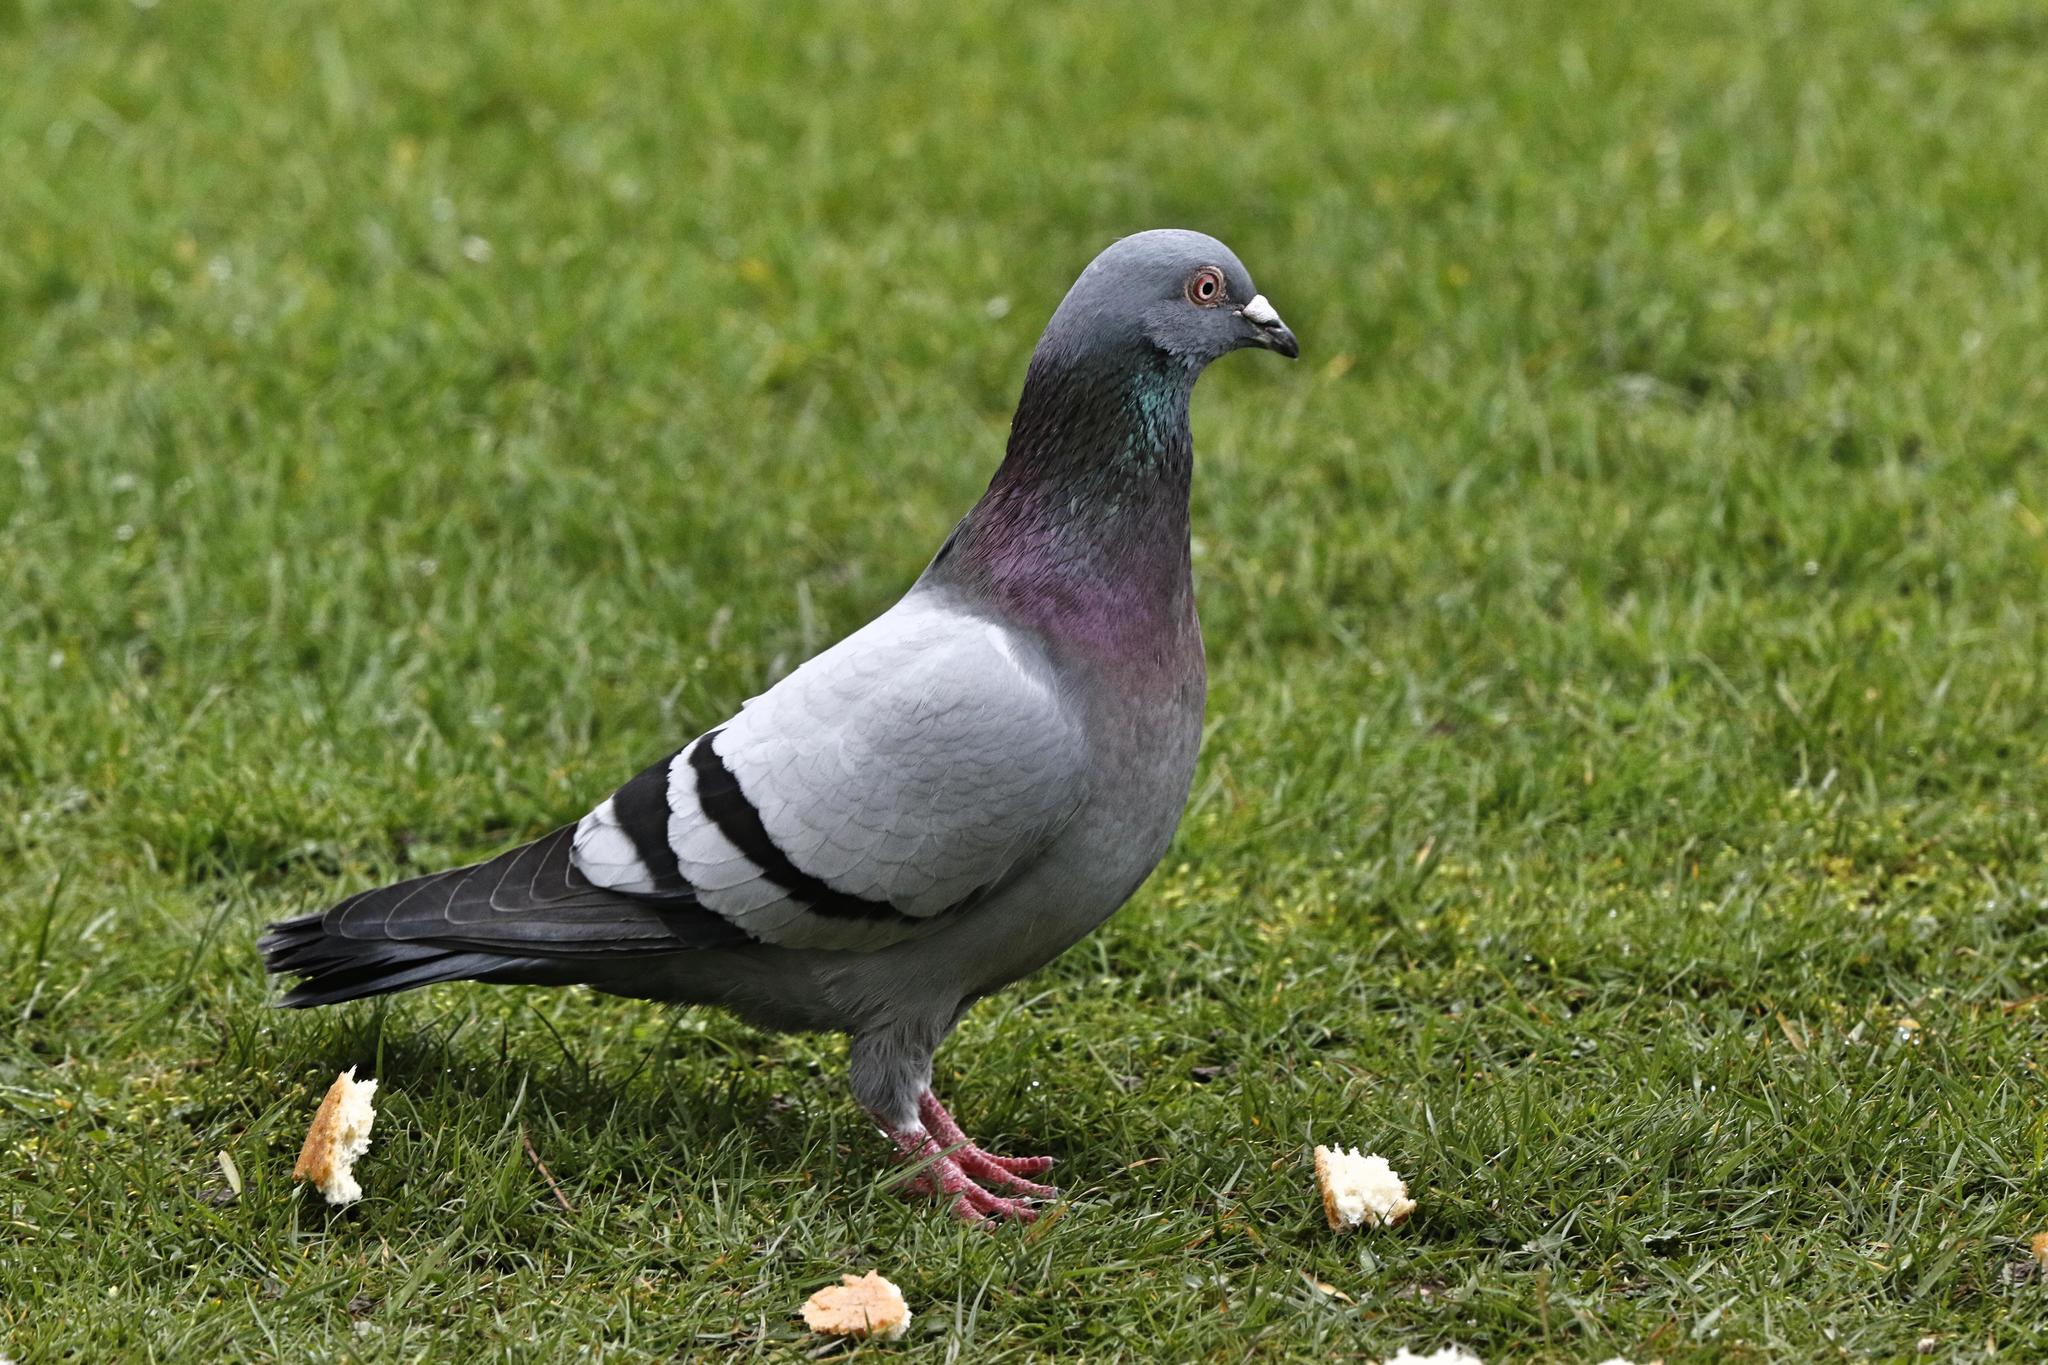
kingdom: Animalia
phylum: Chordata
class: Aves
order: Columbiformes
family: Columbidae
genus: Columba
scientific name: Columba livia
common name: Rock pigeon
